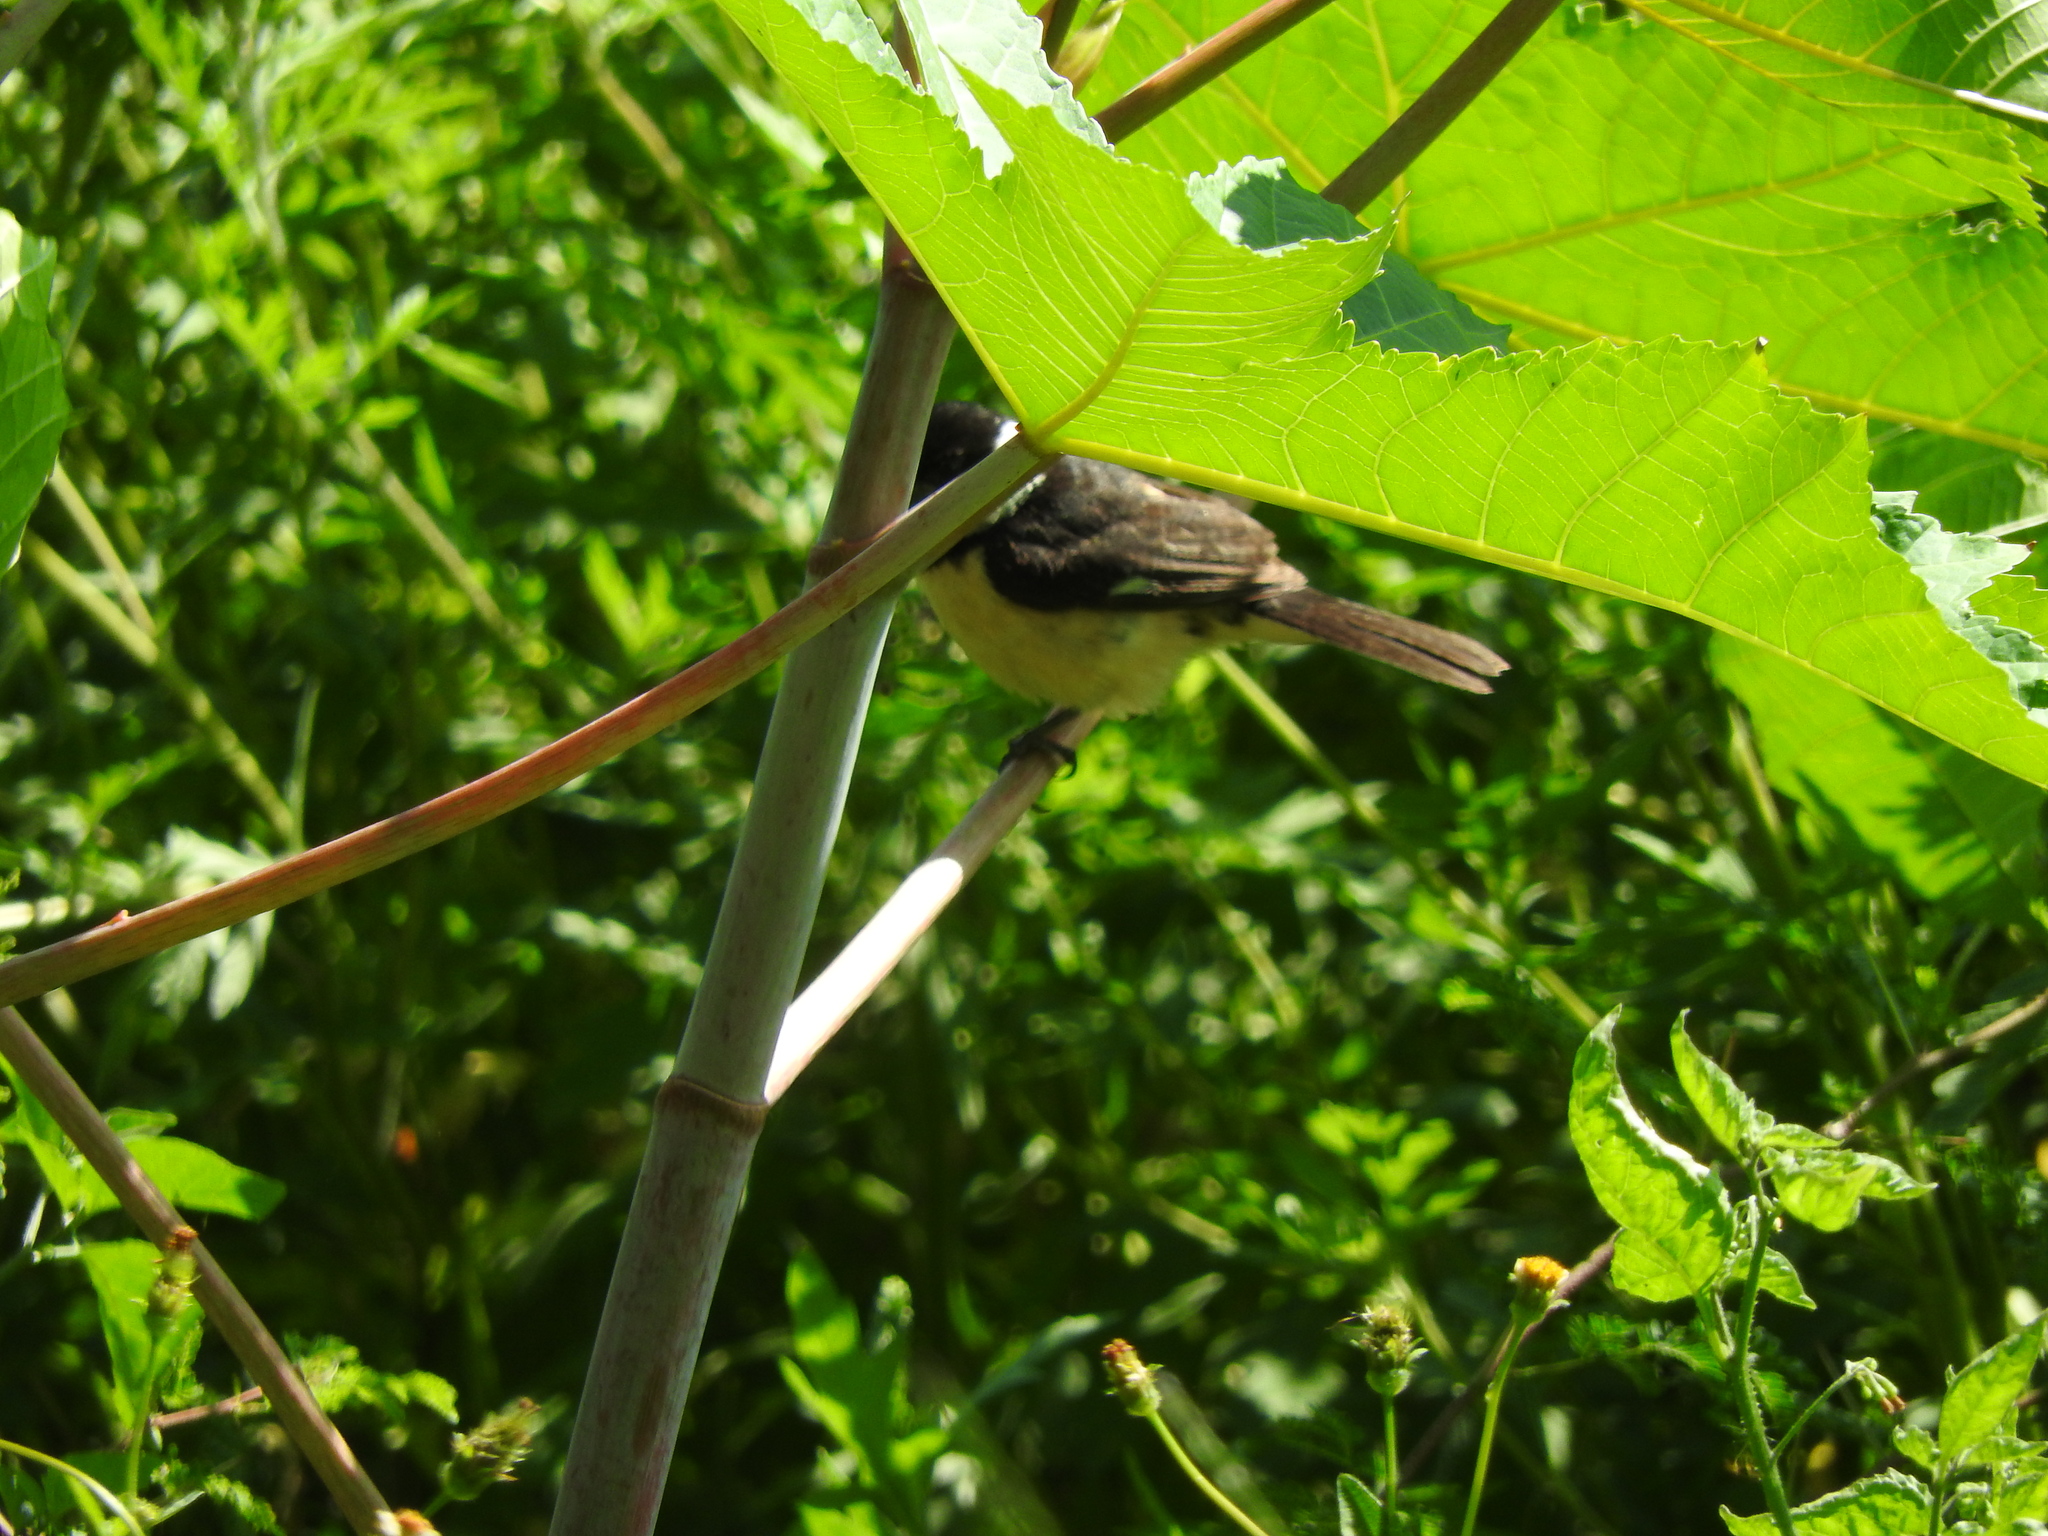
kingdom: Animalia
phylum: Chordata
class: Aves
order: Passeriformes
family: Thraupidae
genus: Sporophila
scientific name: Sporophila torqueola
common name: White-collared seedeater
